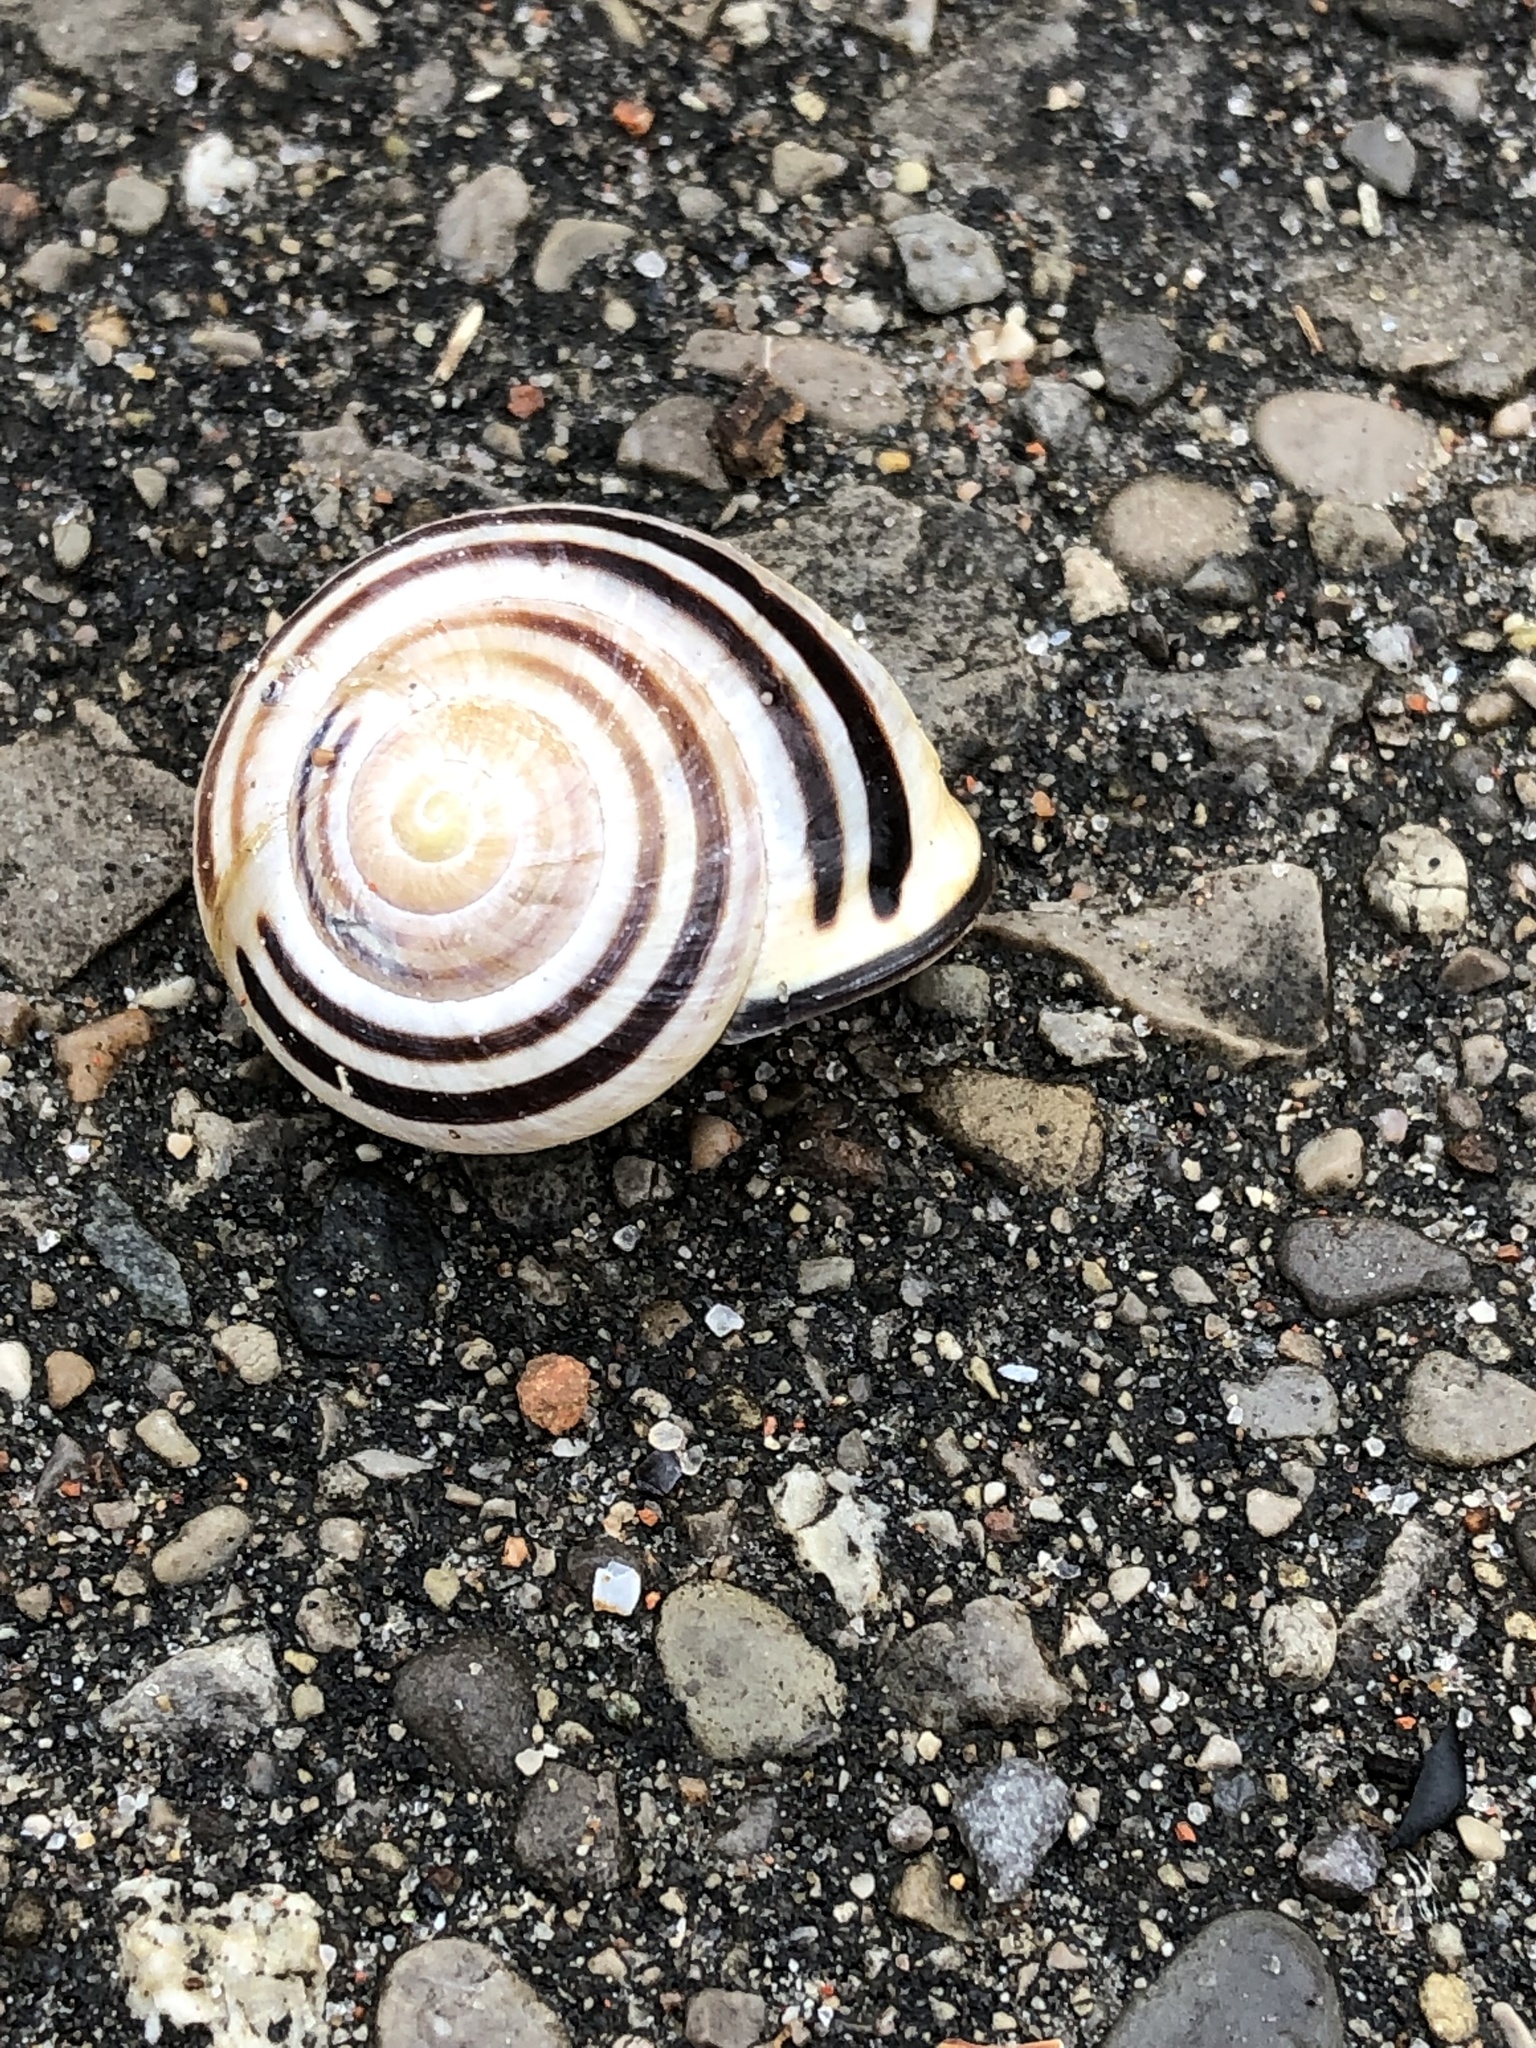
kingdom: Animalia
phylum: Mollusca
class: Gastropoda
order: Stylommatophora
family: Helicidae
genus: Cepaea
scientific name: Cepaea nemoralis
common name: Grovesnail
